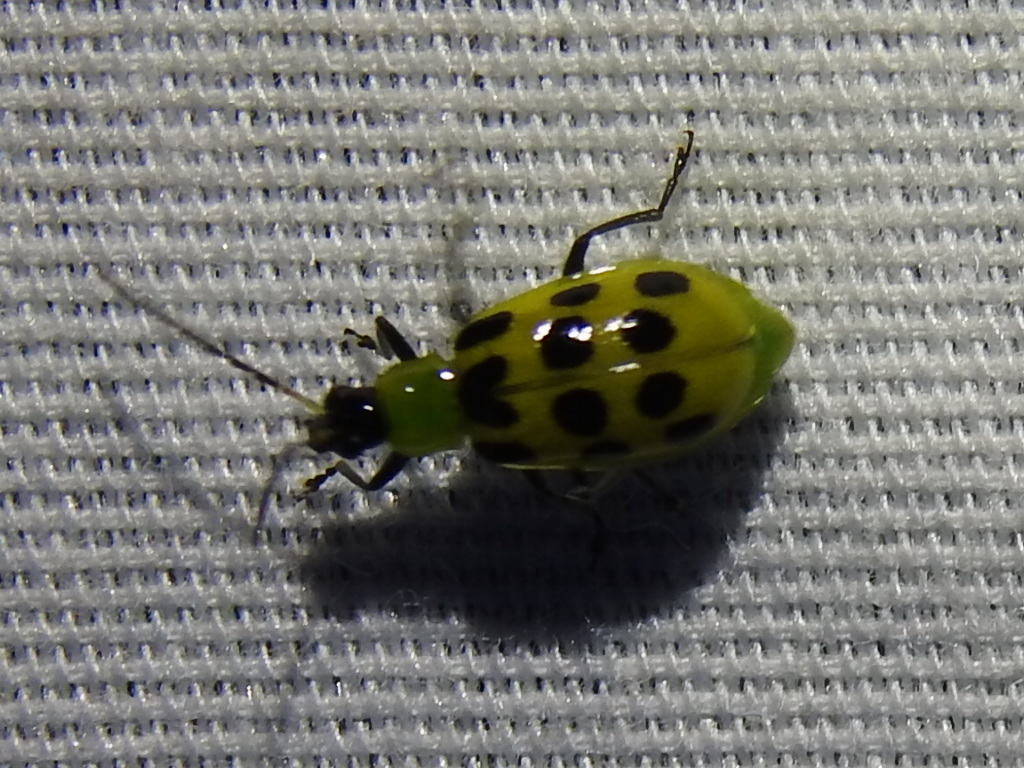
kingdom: Animalia
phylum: Arthropoda
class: Insecta
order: Coleoptera
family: Chrysomelidae
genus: Diabrotica
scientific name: Diabrotica undecimpunctata
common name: Spotted cucumber beetle
